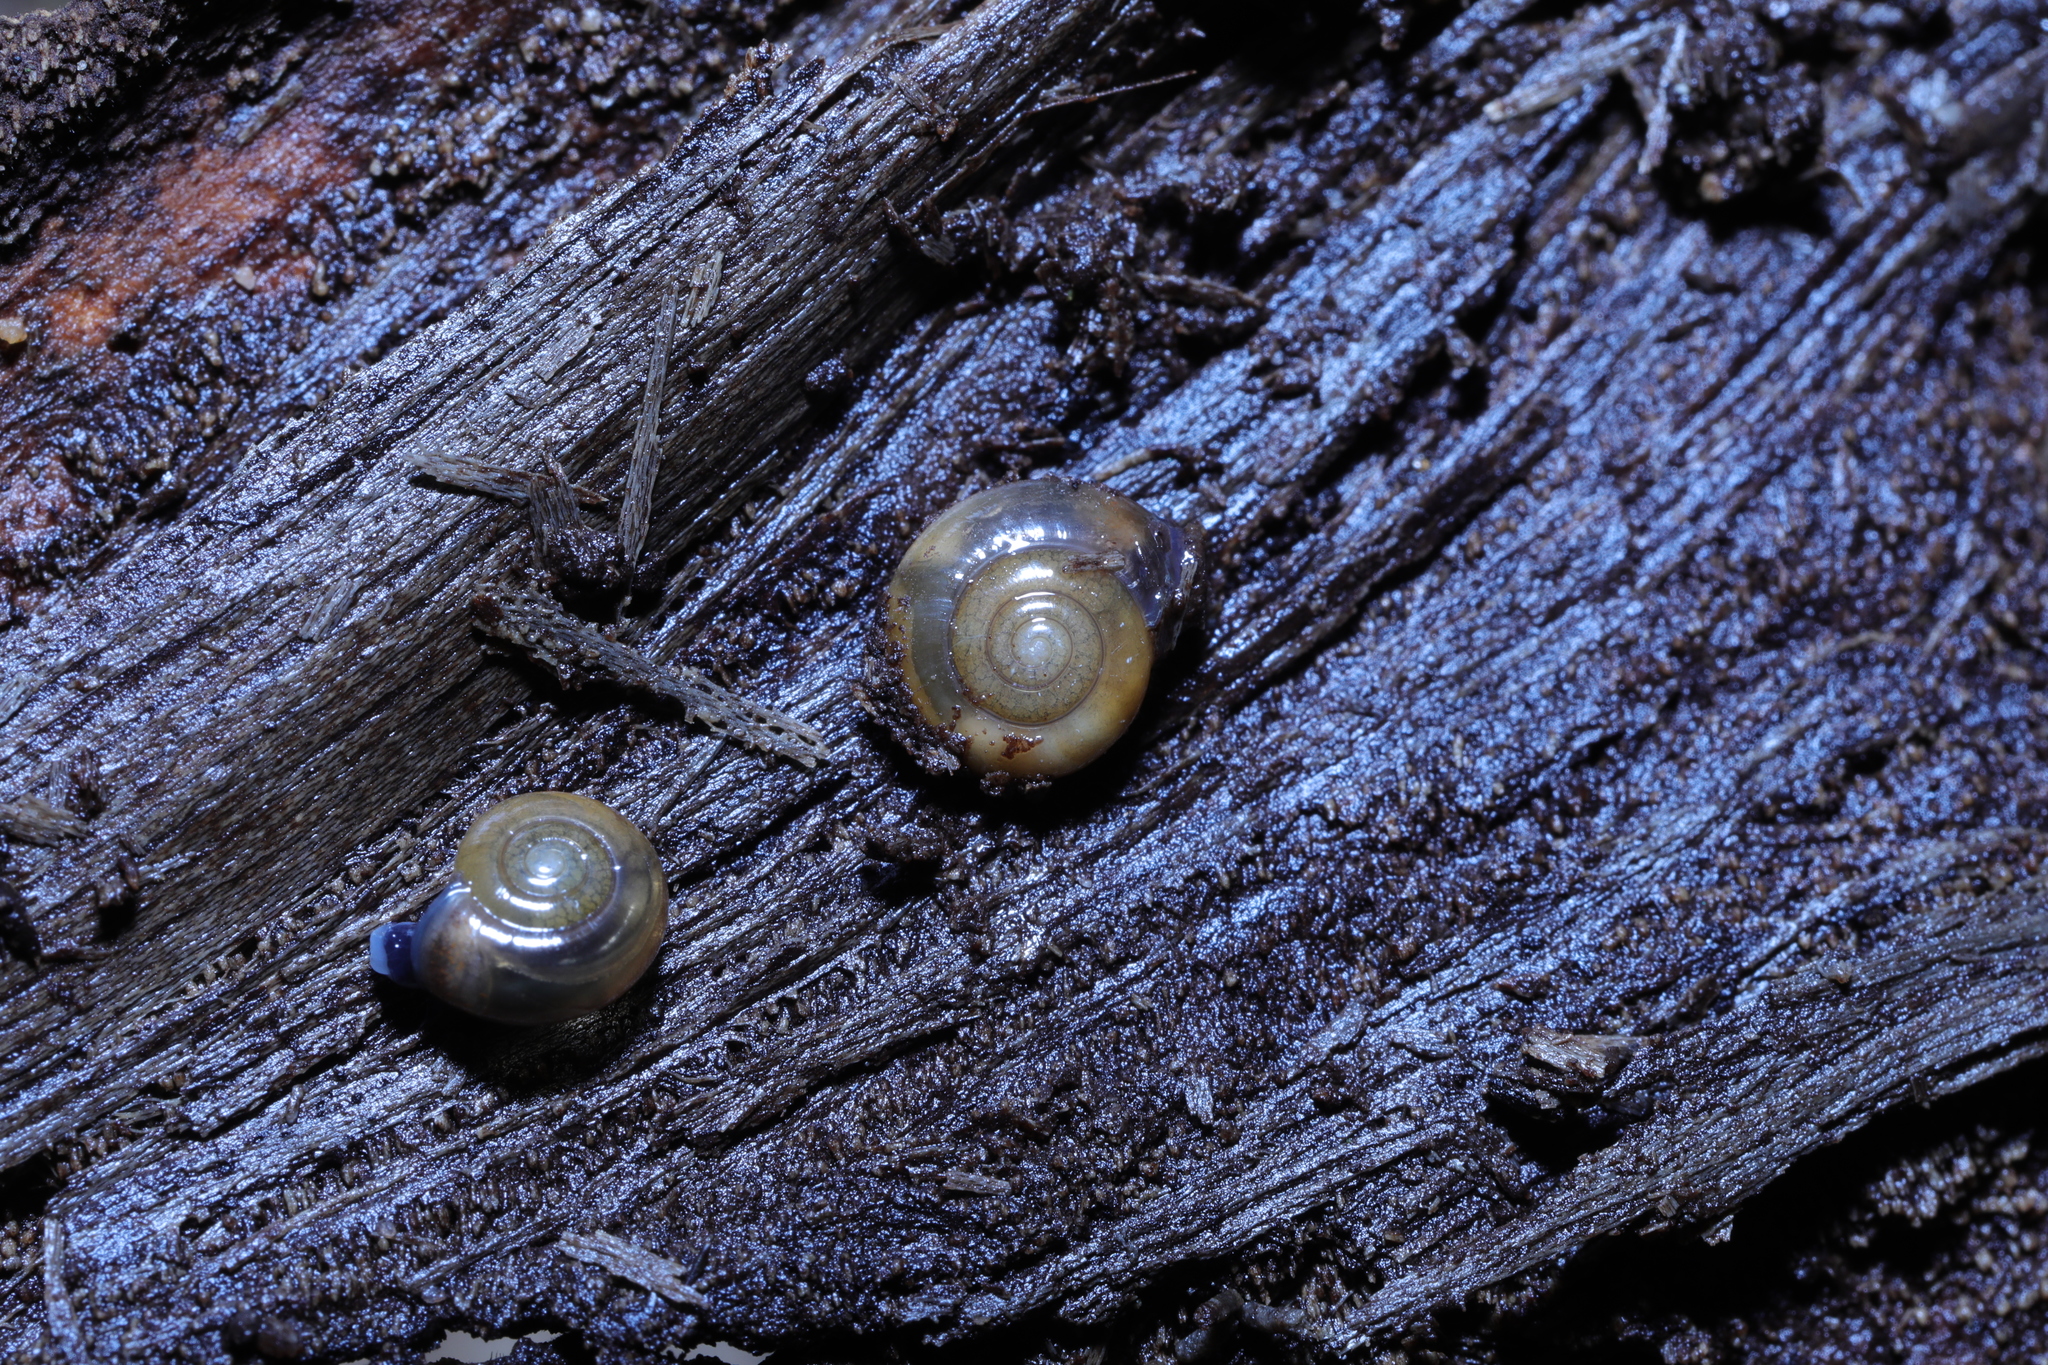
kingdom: Animalia
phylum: Mollusca
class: Gastropoda
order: Stylommatophora
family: Oxychilidae
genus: Oxychilus
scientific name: Oxychilus alliarius
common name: Garlic glass-snail
